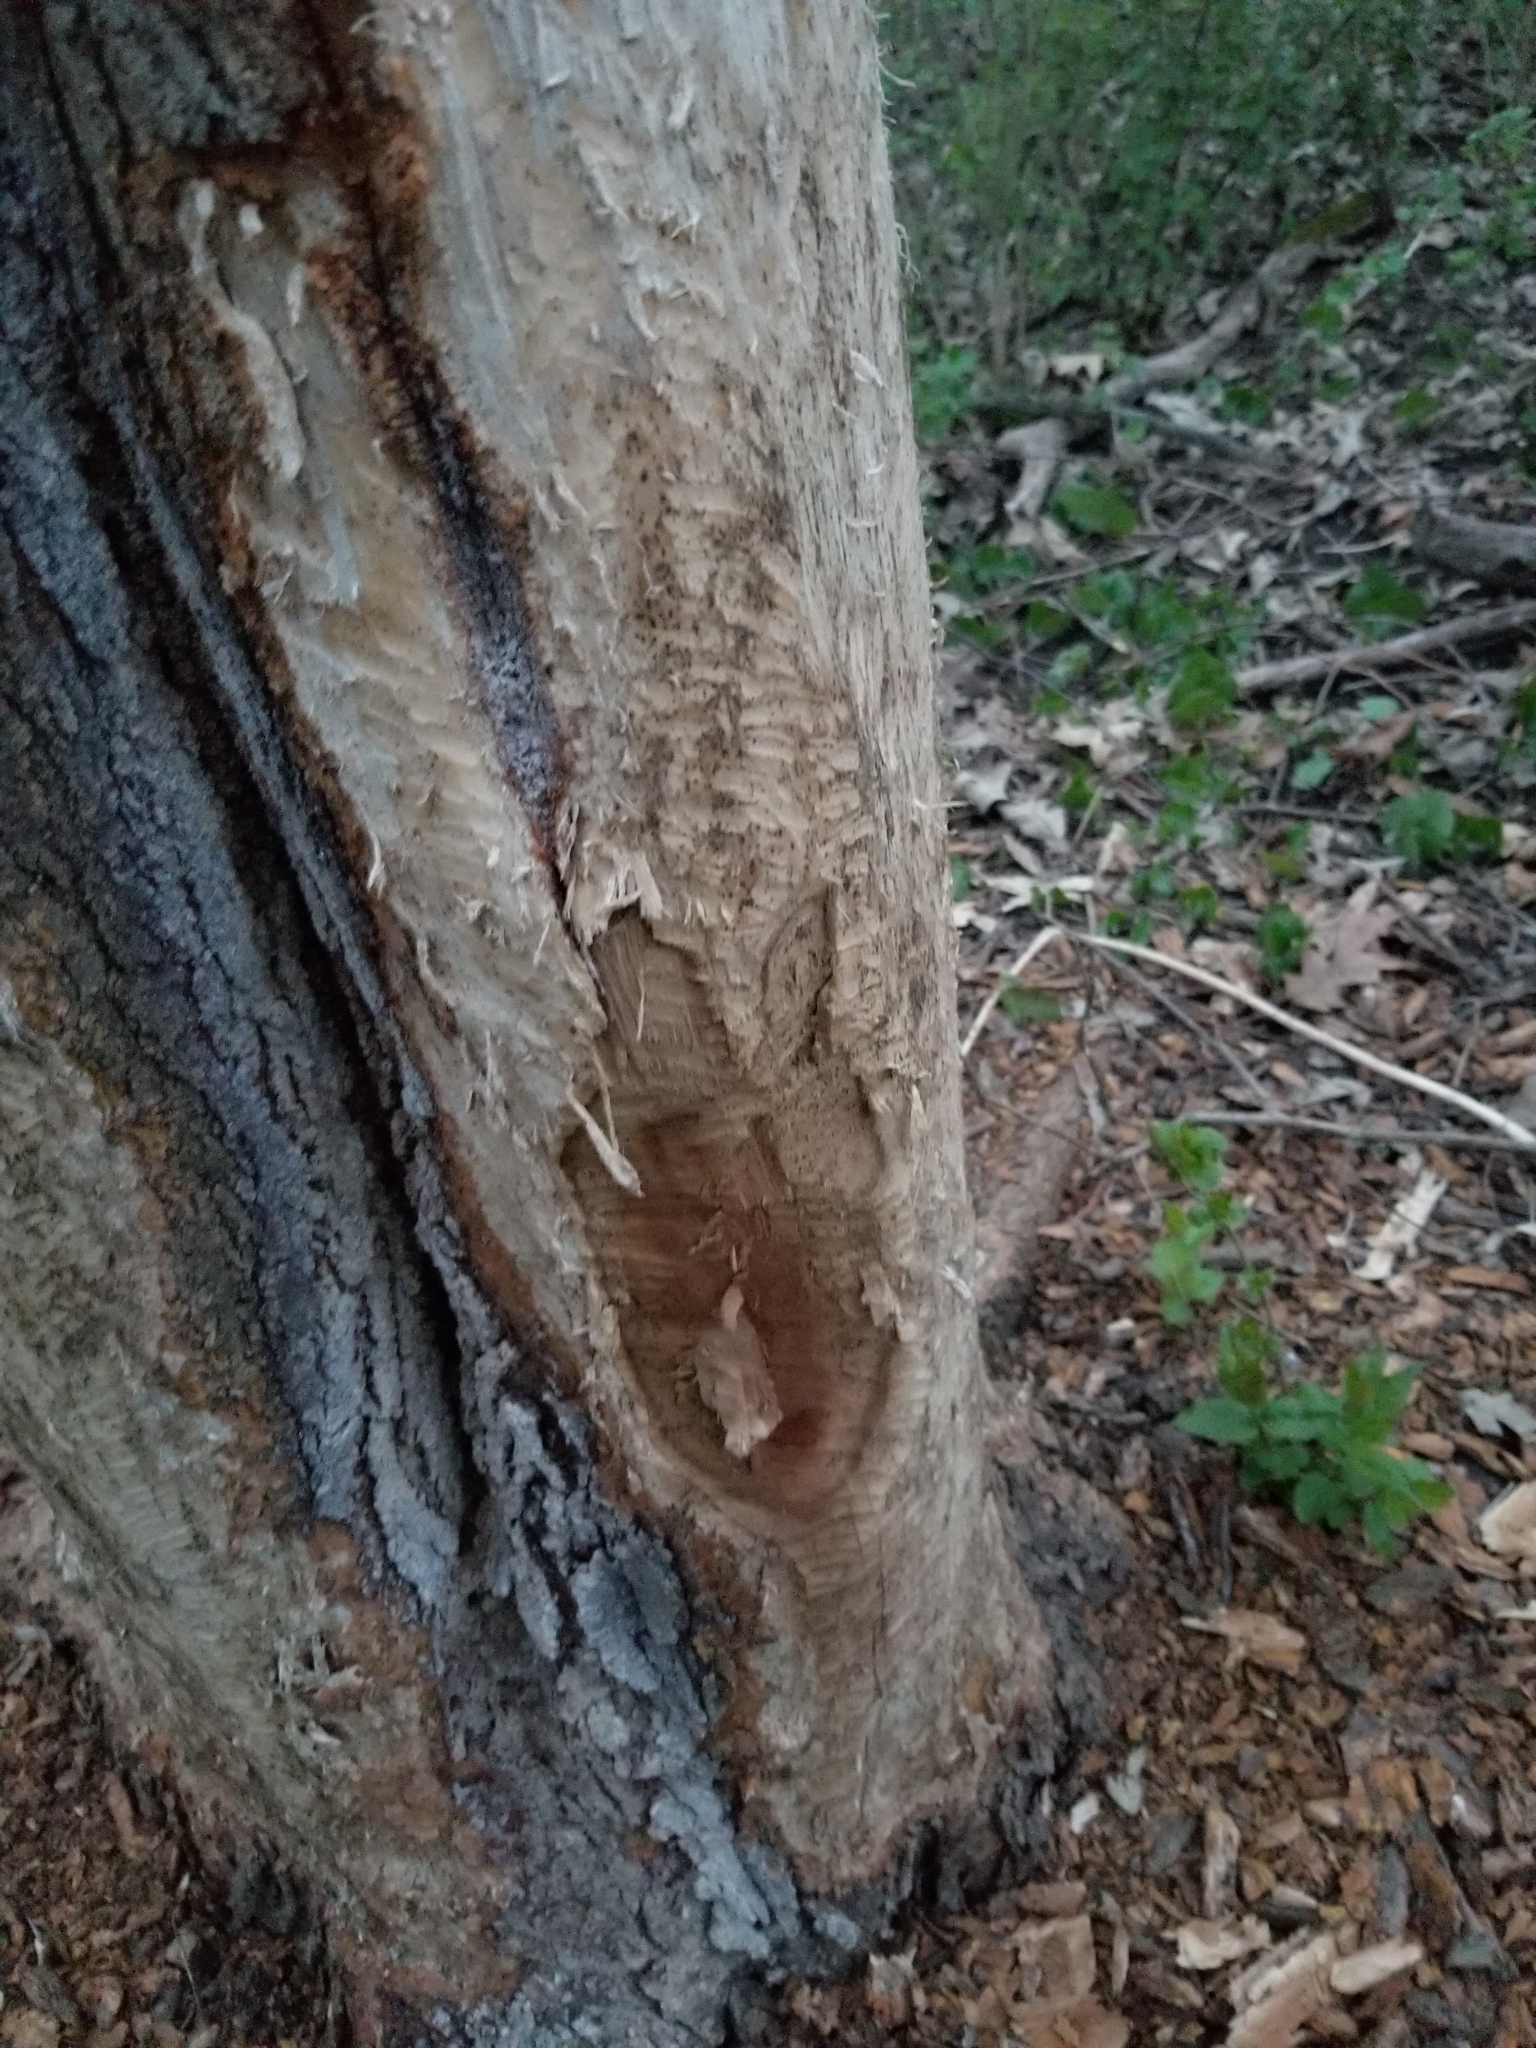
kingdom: Animalia
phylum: Chordata
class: Mammalia
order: Rodentia
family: Castoridae
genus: Castor
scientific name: Castor canadensis
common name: American beaver
